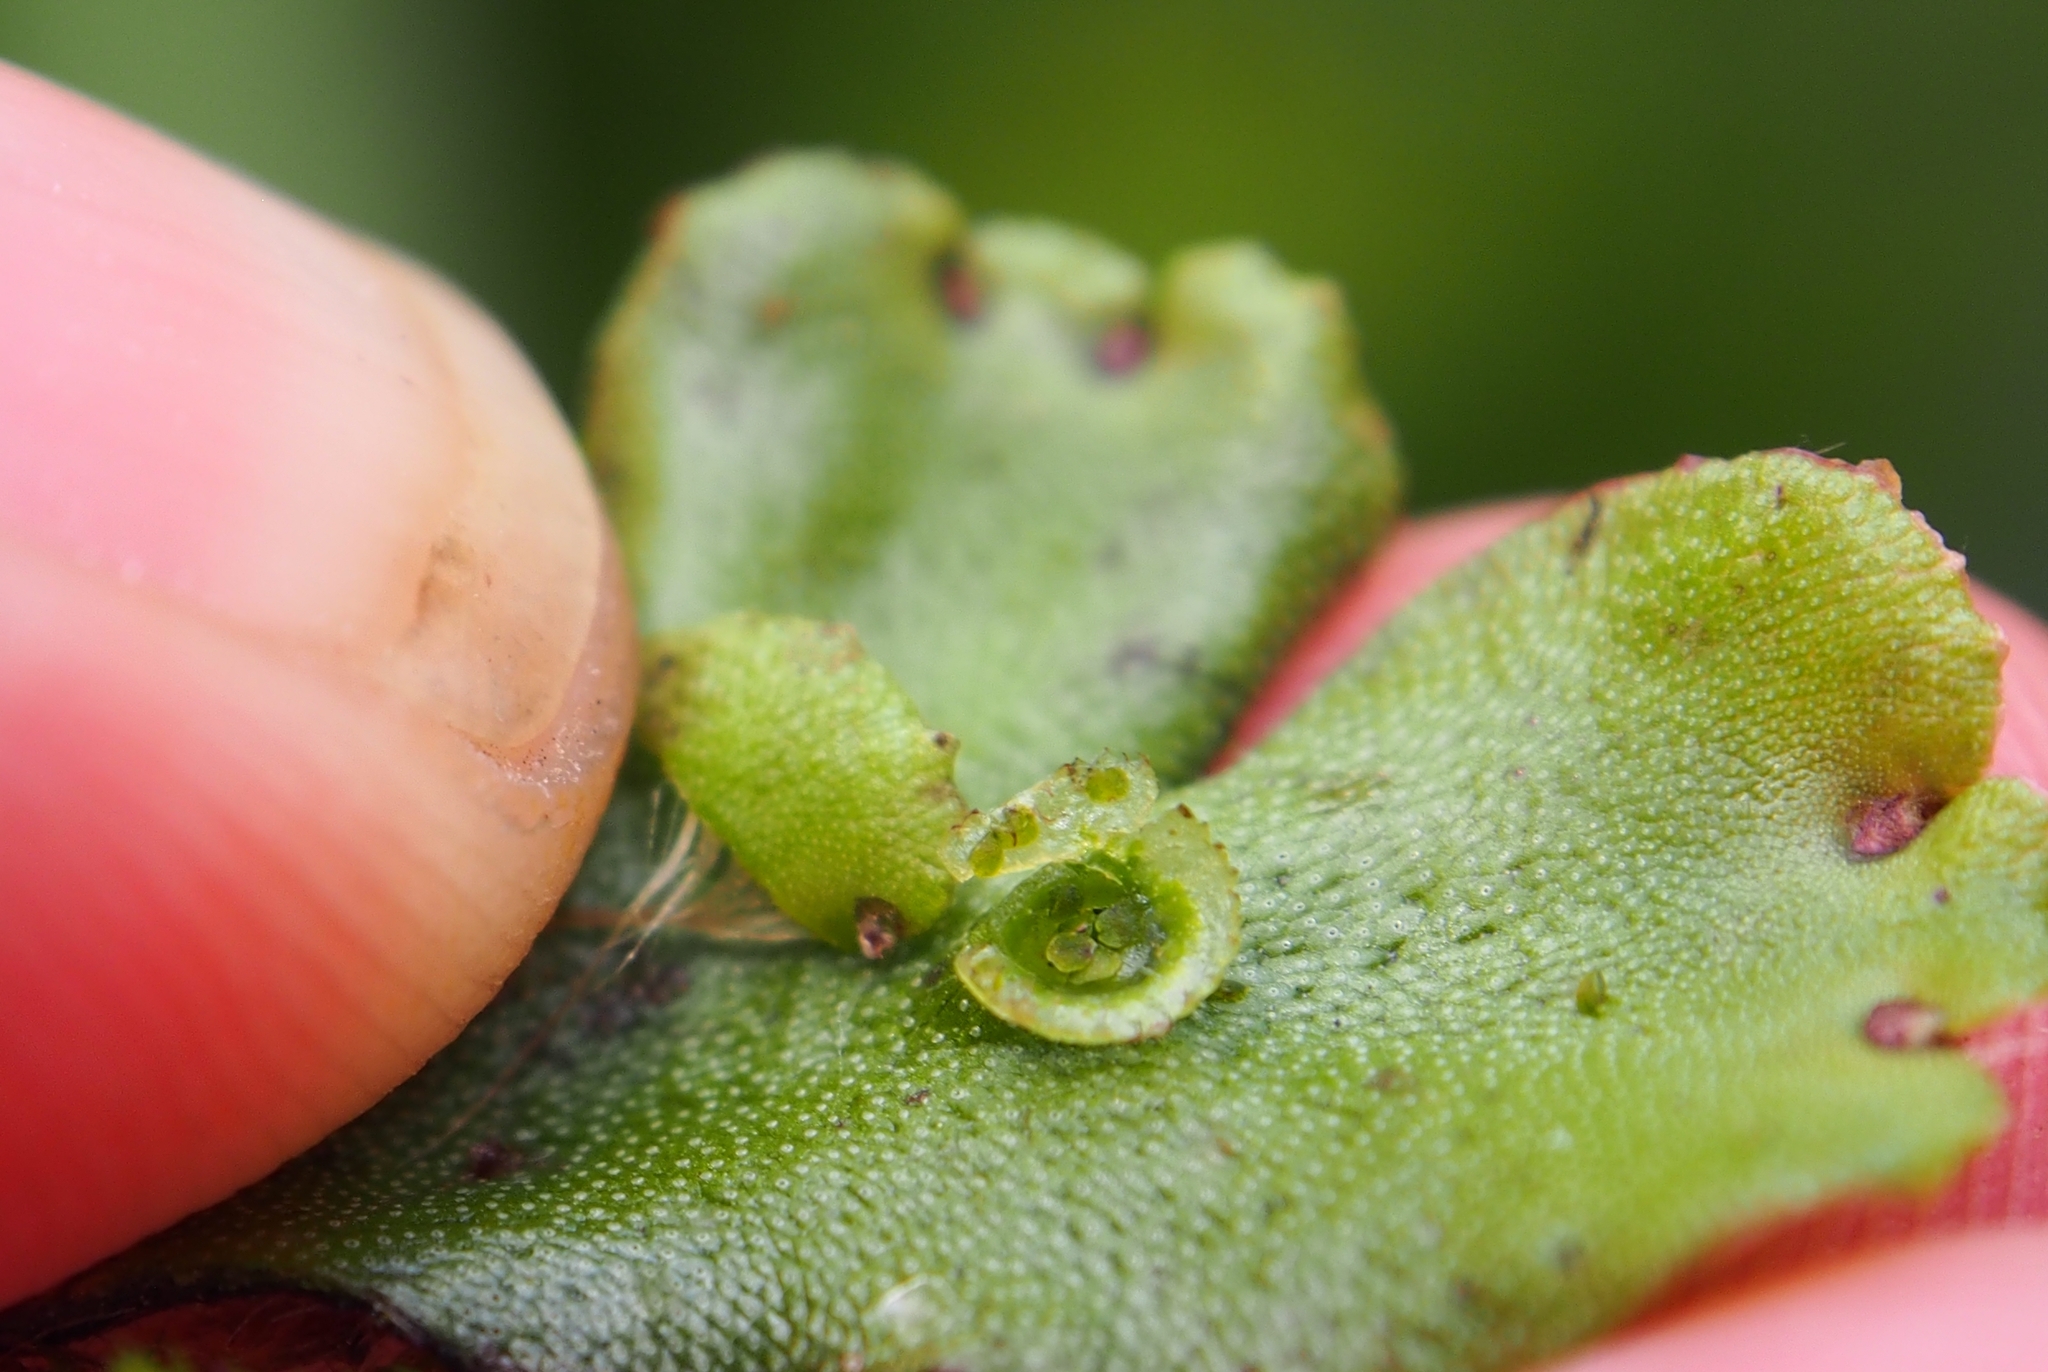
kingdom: Plantae
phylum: Marchantiophyta
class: Marchantiopsida
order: Marchantiales
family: Marchantiaceae
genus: Marchantia
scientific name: Marchantia polymorpha
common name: Common liverwort
